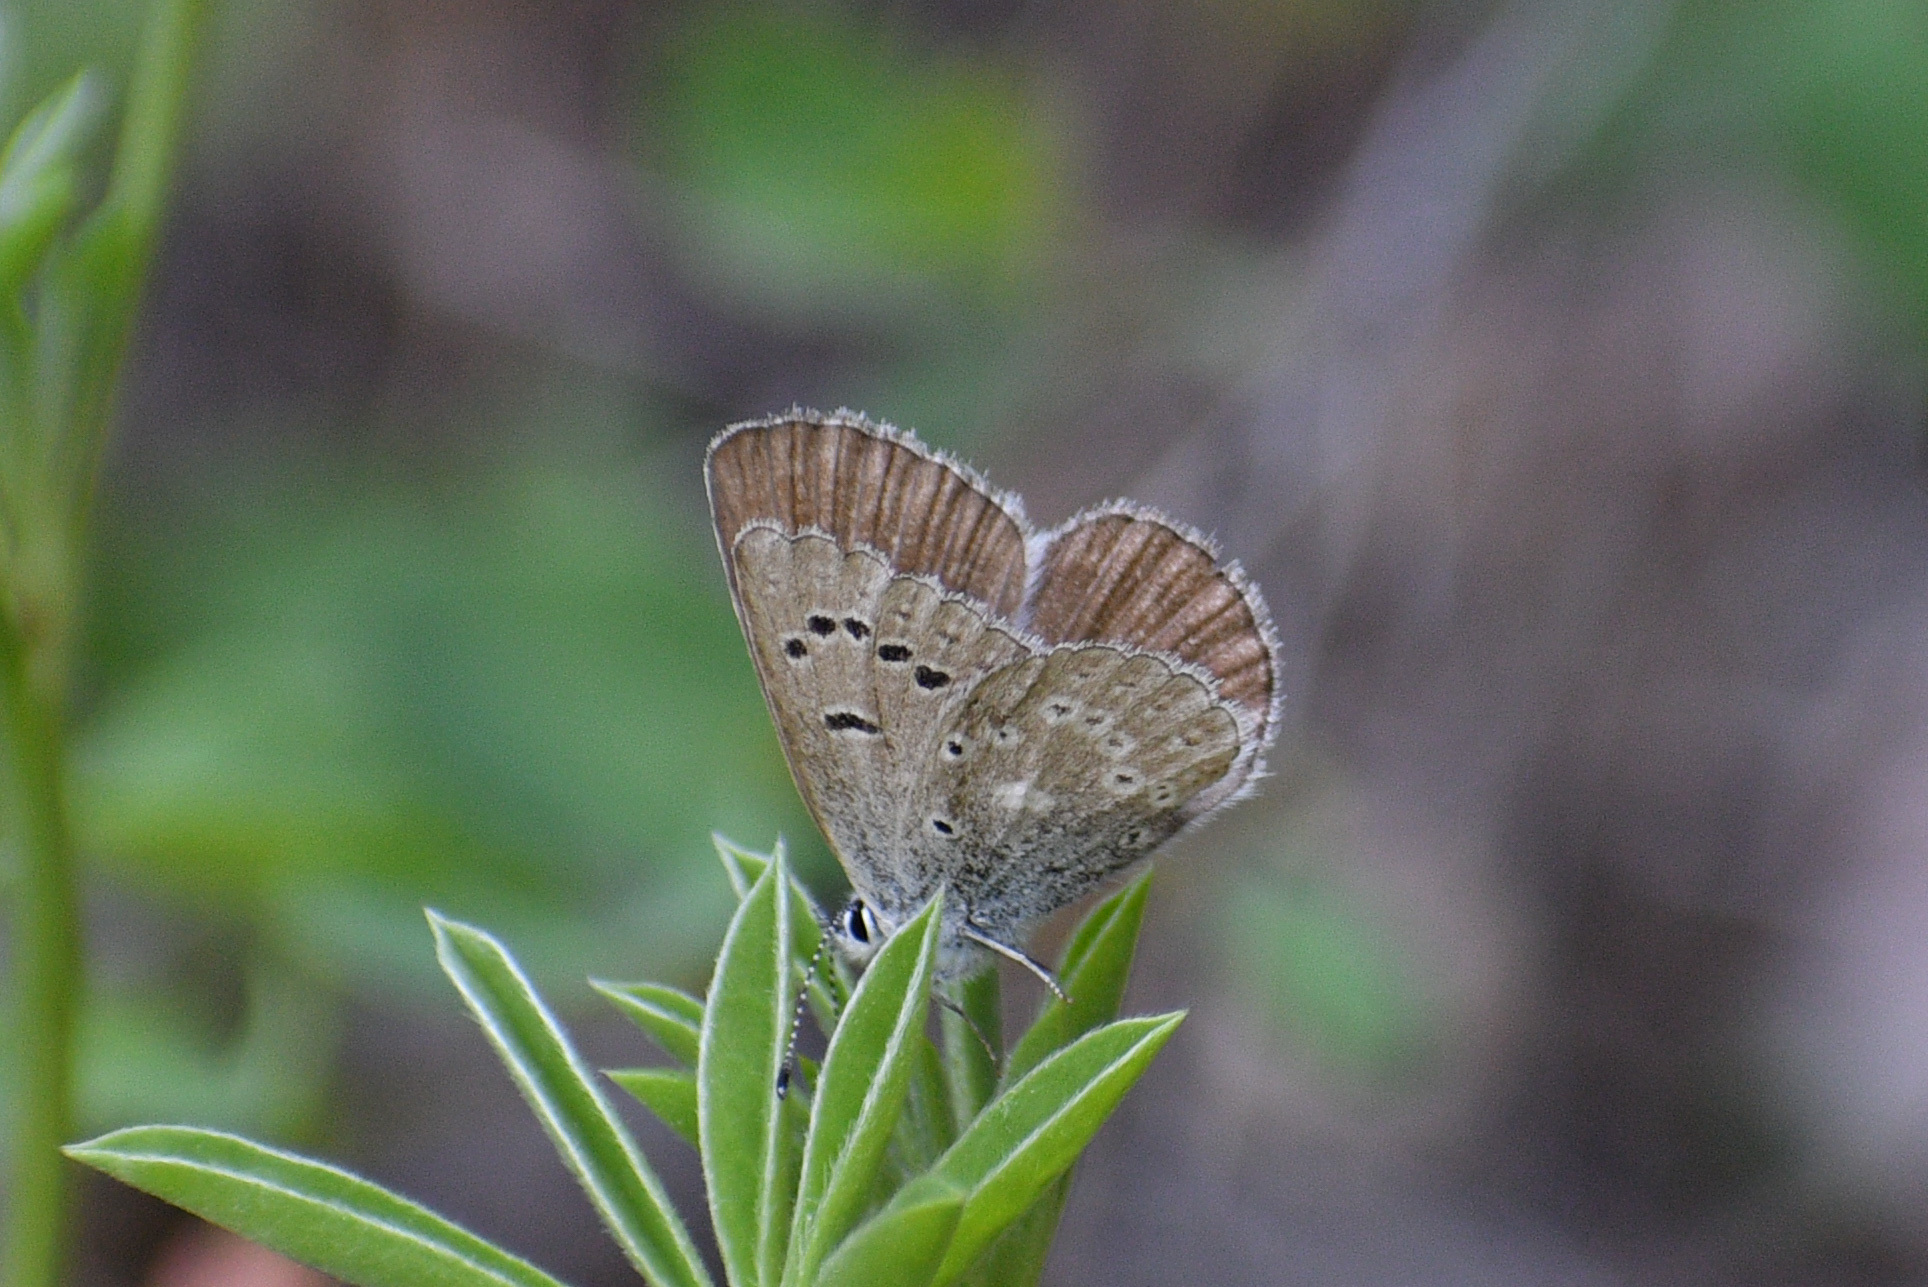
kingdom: Animalia
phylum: Arthropoda
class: Insecta
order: Lepidoptera
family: Lycaenidae
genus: Icaricia
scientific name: Icaricia icarioides
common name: Boisduval's blue
